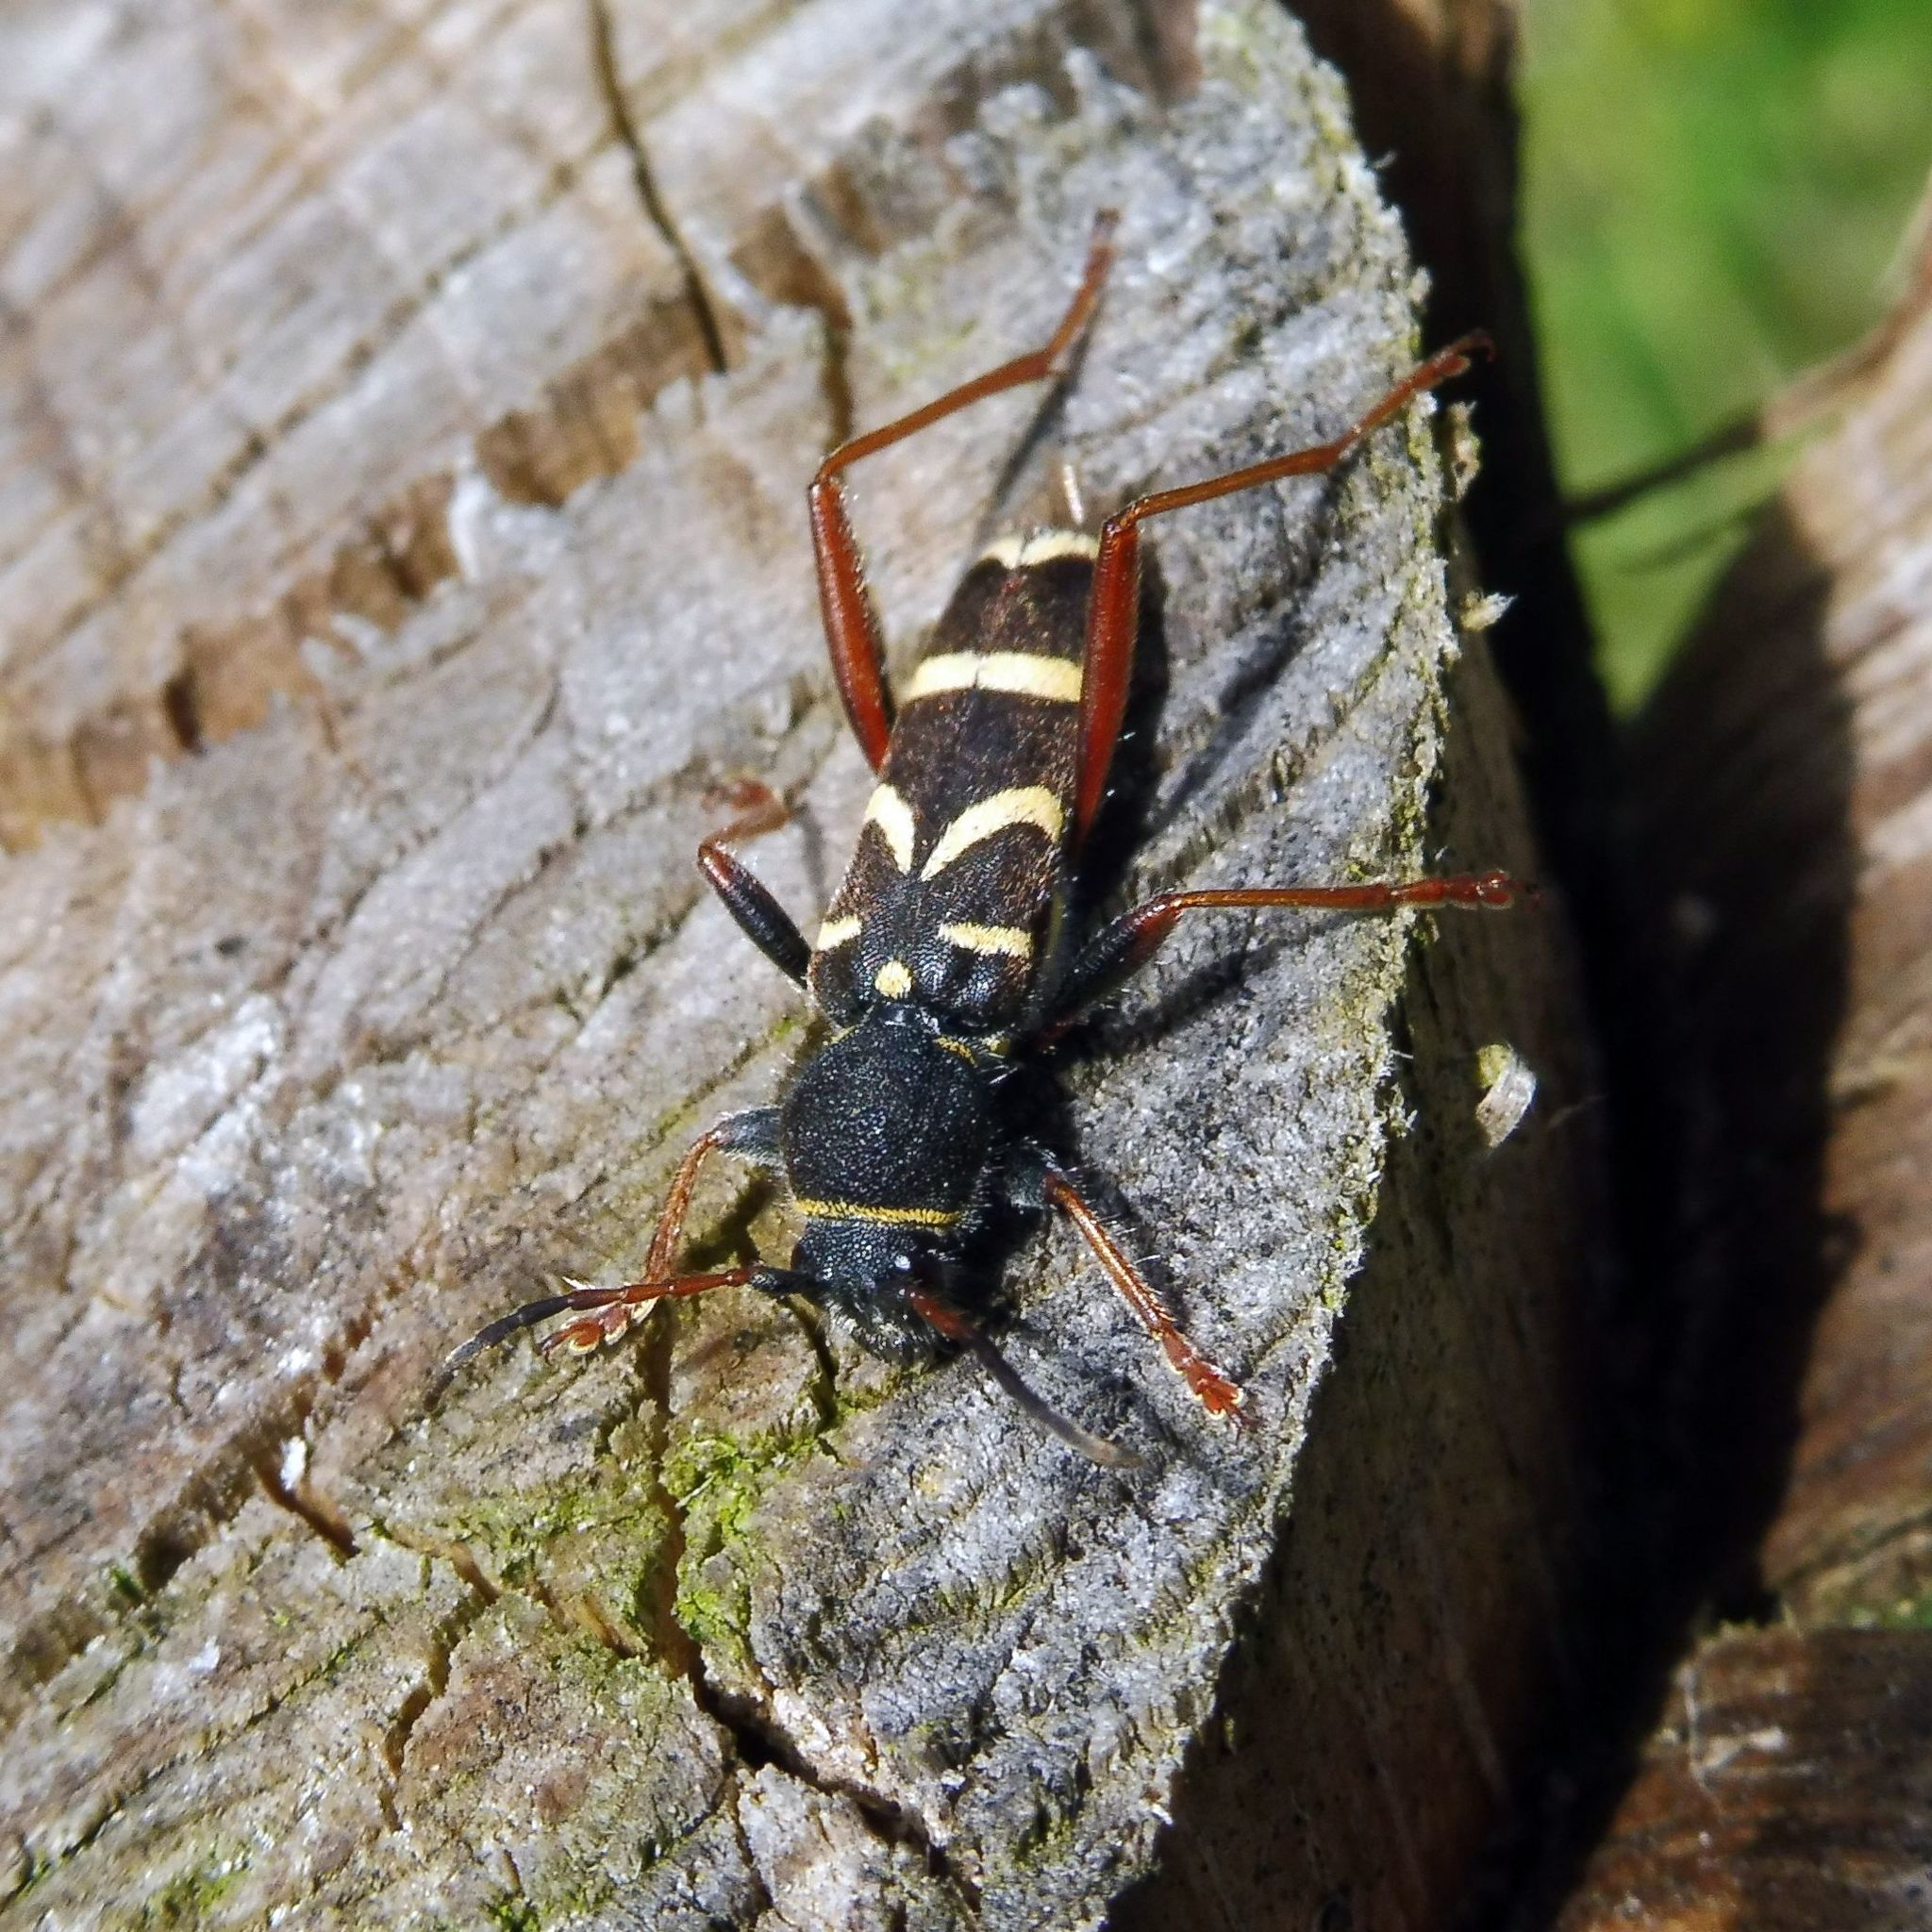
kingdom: Animalia
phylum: Arthropoda
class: Insecta
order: Coleoptera
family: Cerambycidae
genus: Clytus
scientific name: Clytus arietis
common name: Wasp beetle
